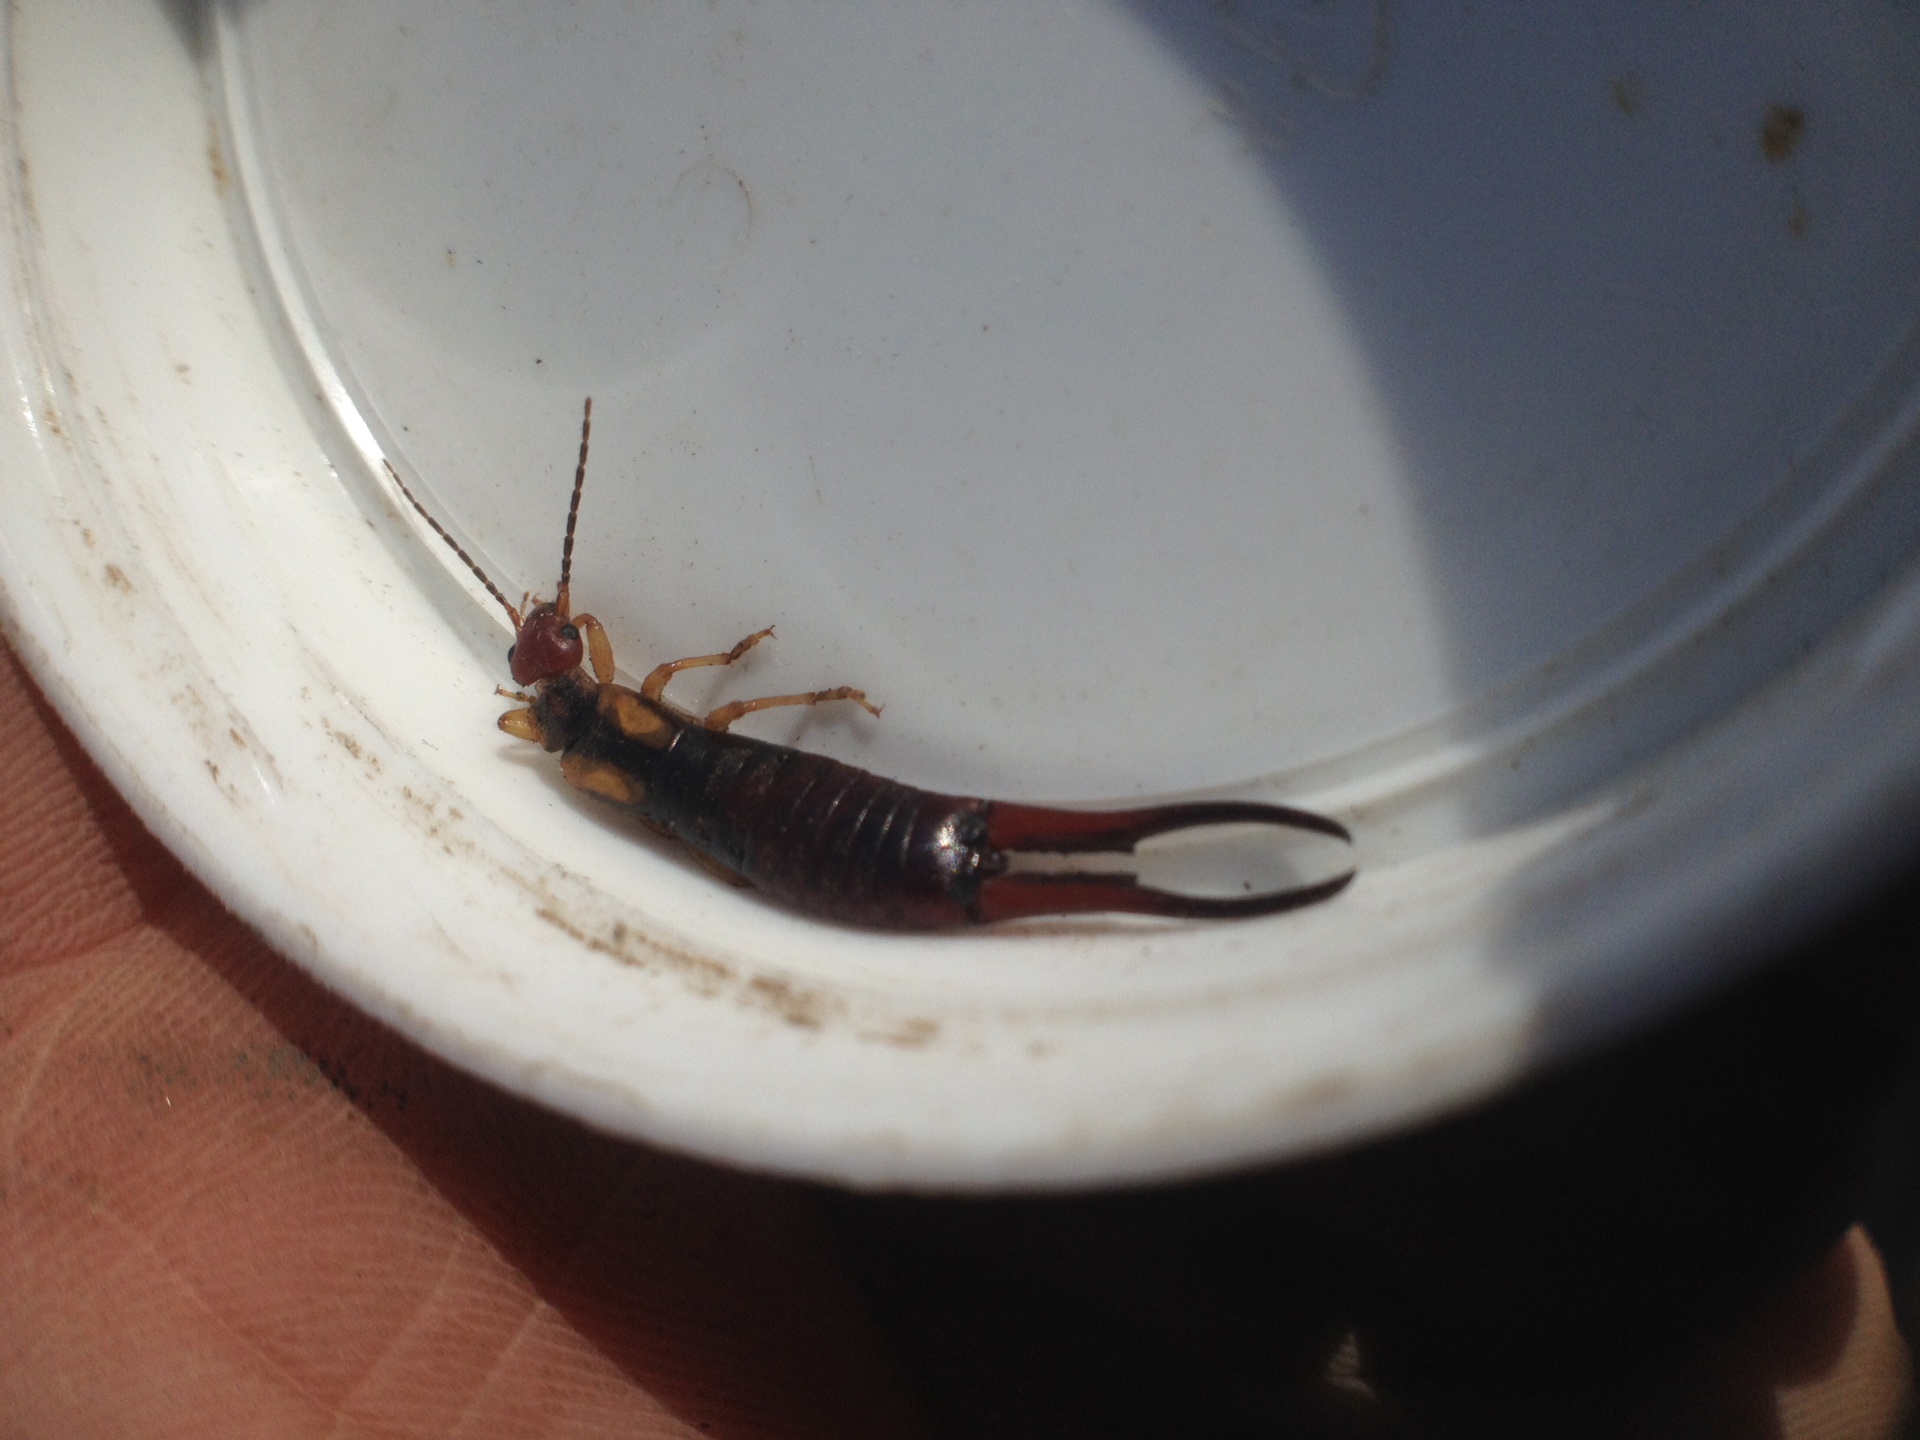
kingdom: Animalia
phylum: Arthropoda
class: Insecta
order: Dermaptera
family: Forficulidae
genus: Forficula
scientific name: Forficula tomis
